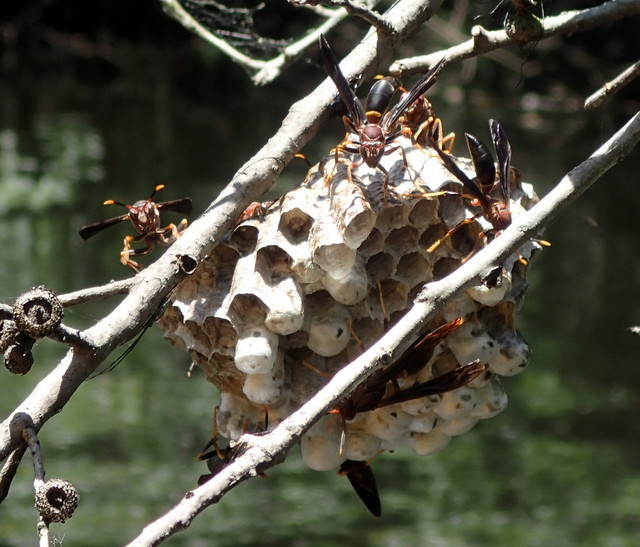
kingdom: Animalia
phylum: Arthropoda
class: Insecta
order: Hymenoptera
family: Eumenidae
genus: Polistes
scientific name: Polistes annularis
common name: Ringed paper wasp
